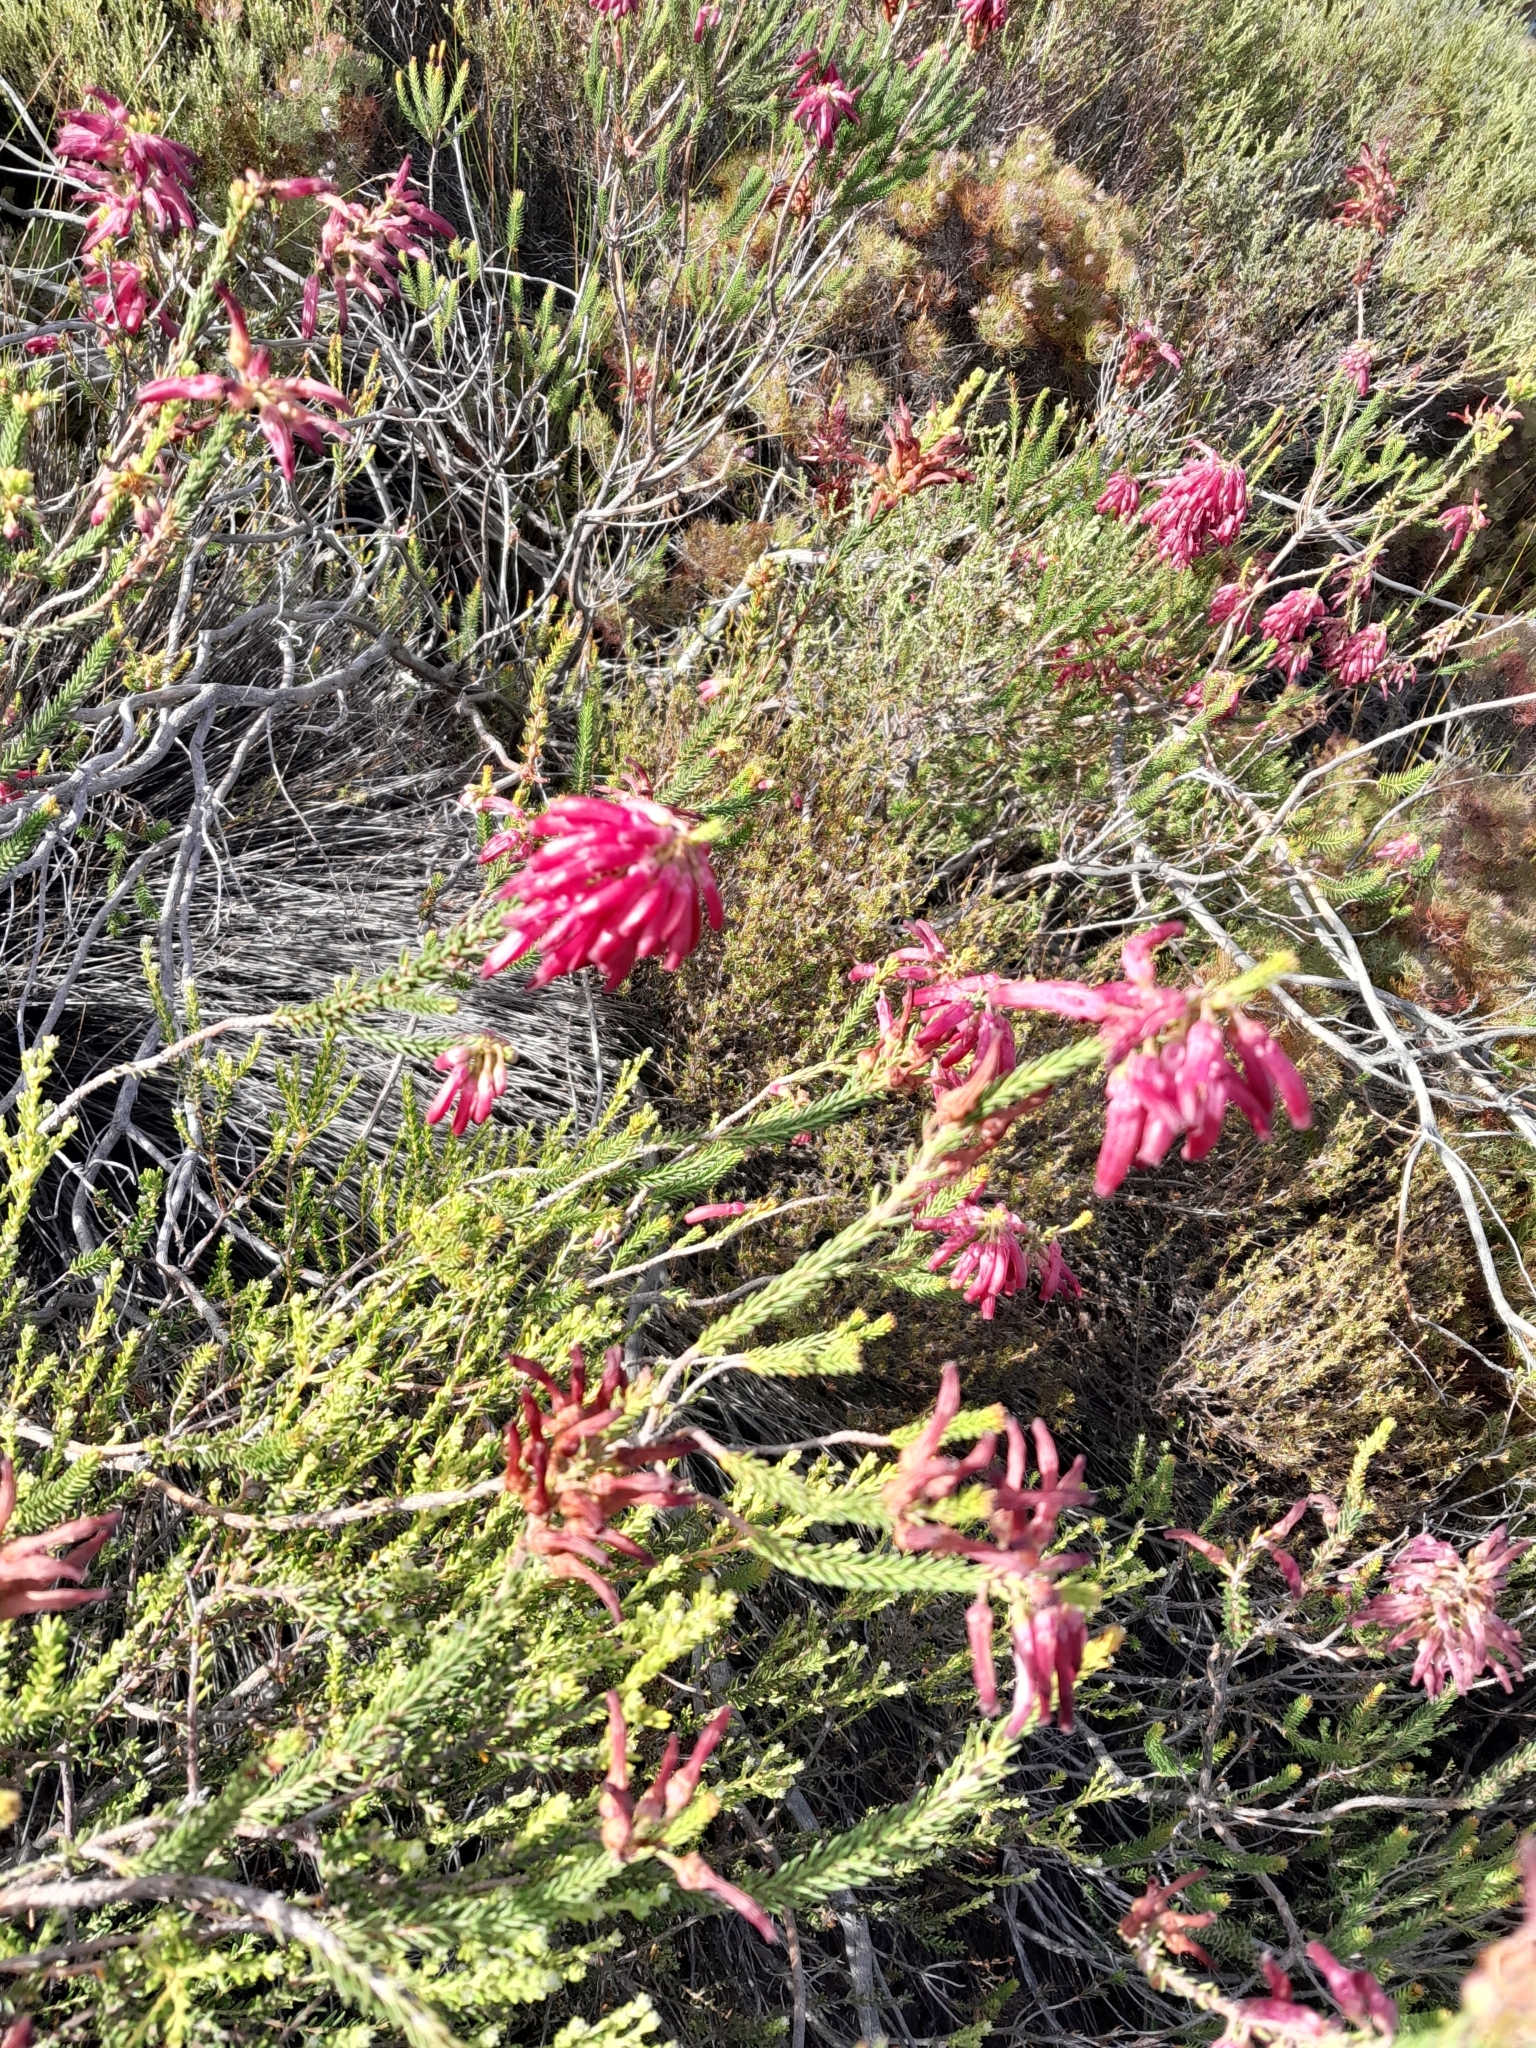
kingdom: Plantae
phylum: Tracheophyta
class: Magnoliopsida
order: Ericales
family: Ericaceae
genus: Erica
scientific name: Erica mammosa
